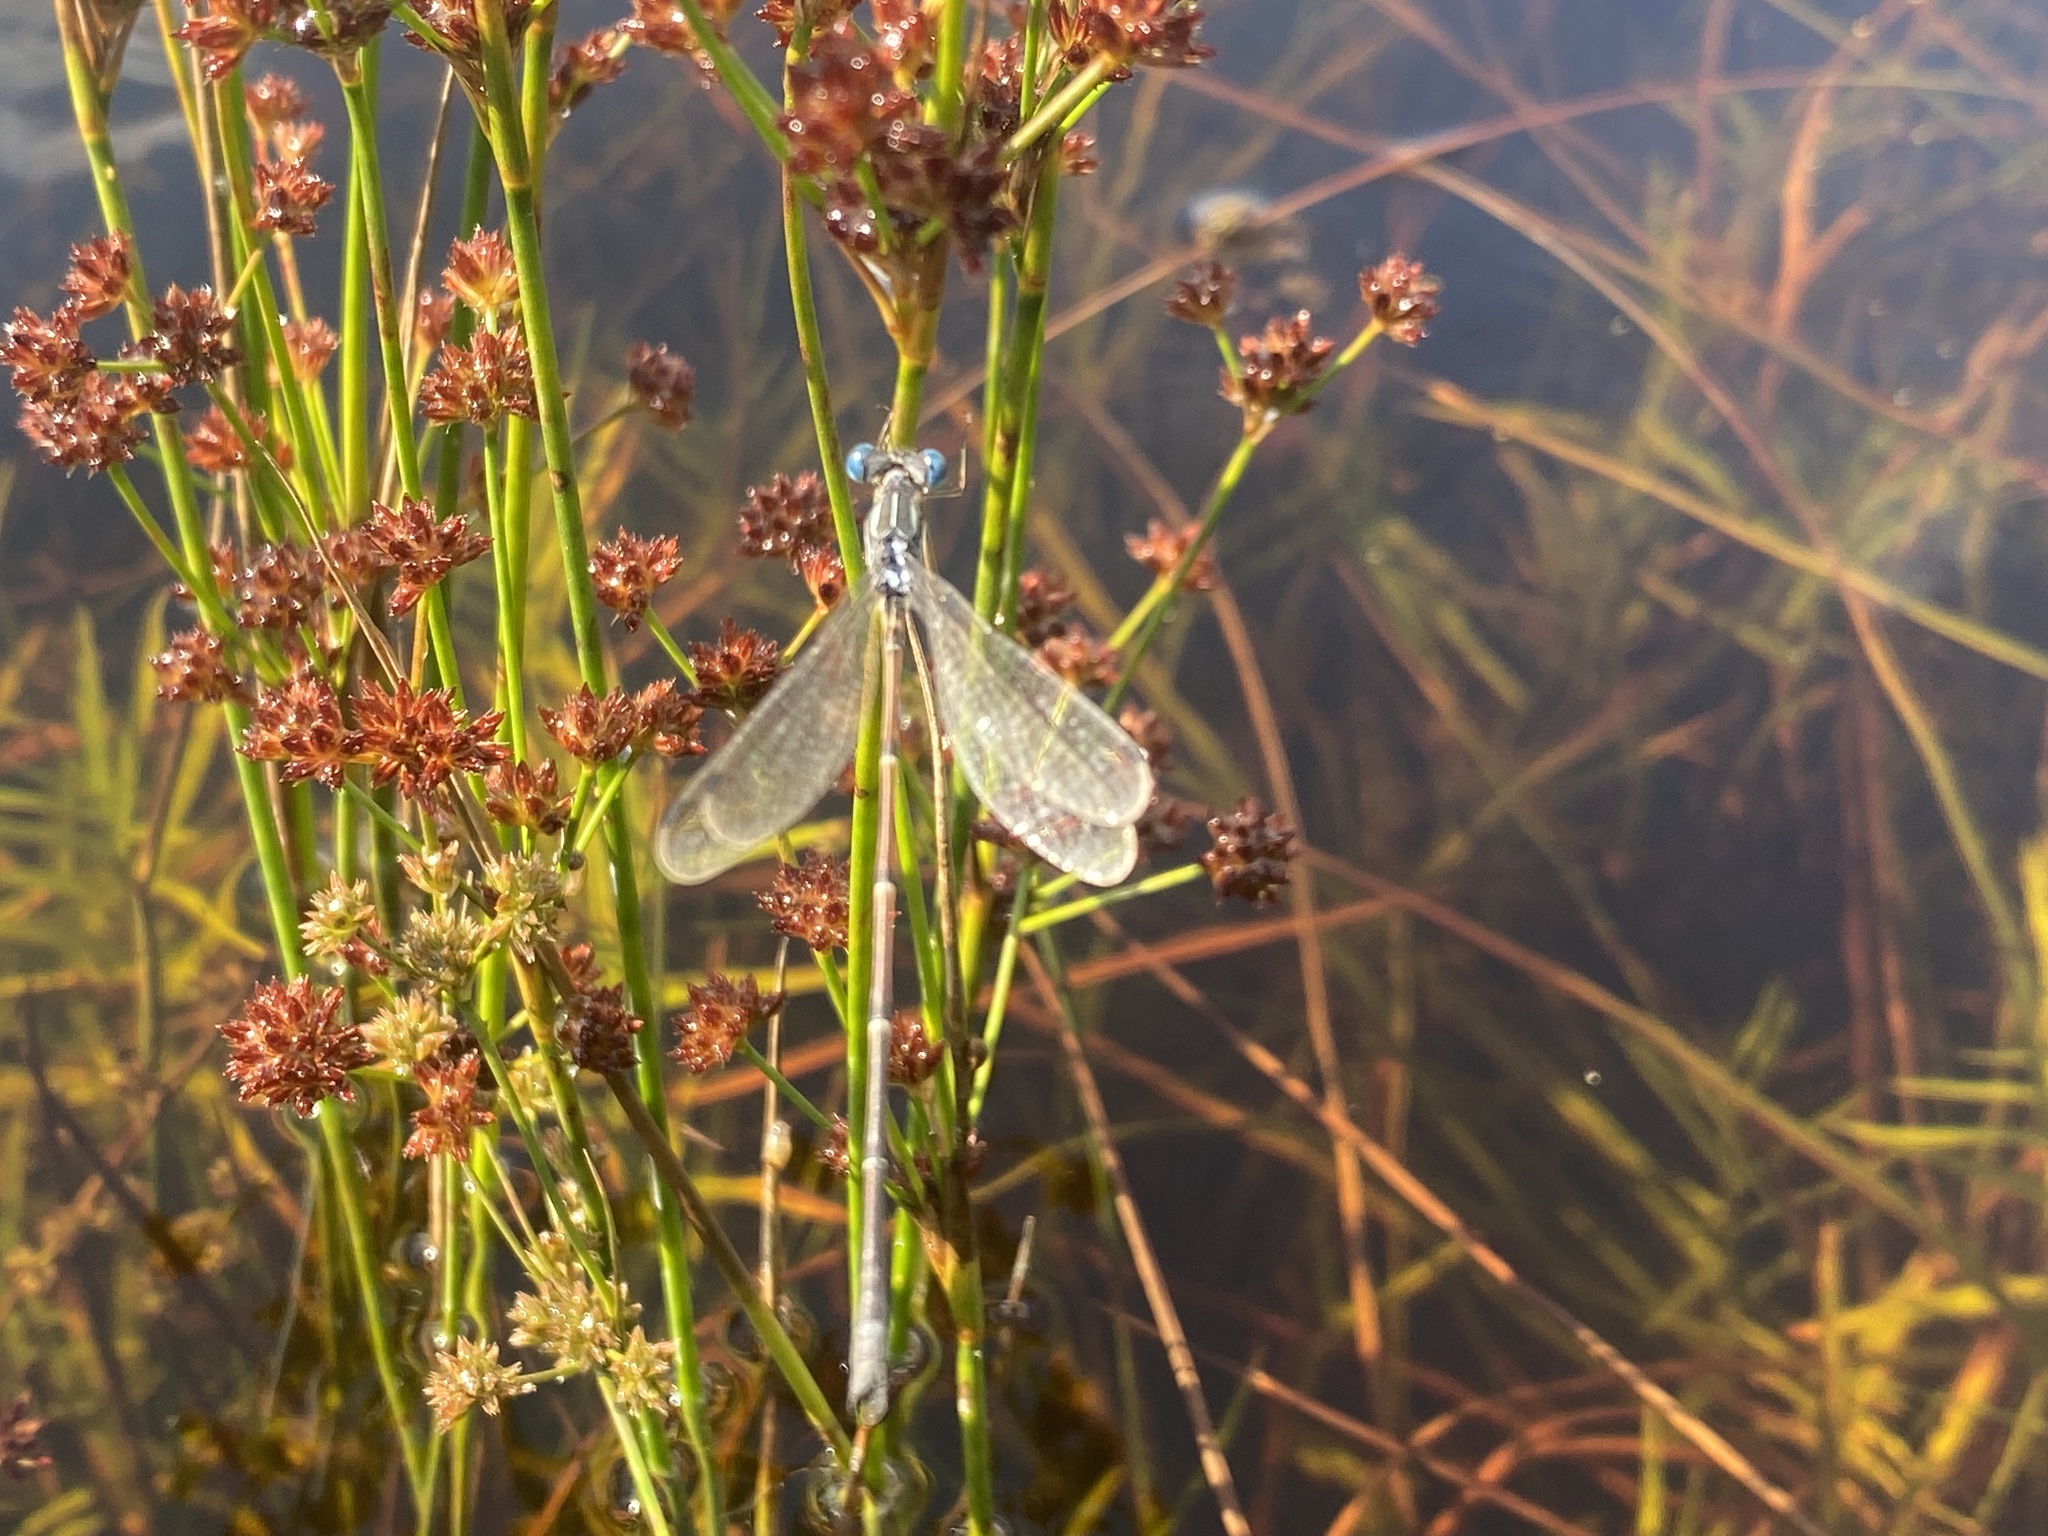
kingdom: Animalia
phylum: Arthropoda
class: Insecta
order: Odonata
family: Lestidae
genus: Lestes
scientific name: Lestes rectangularis
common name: Slender spreadwing
